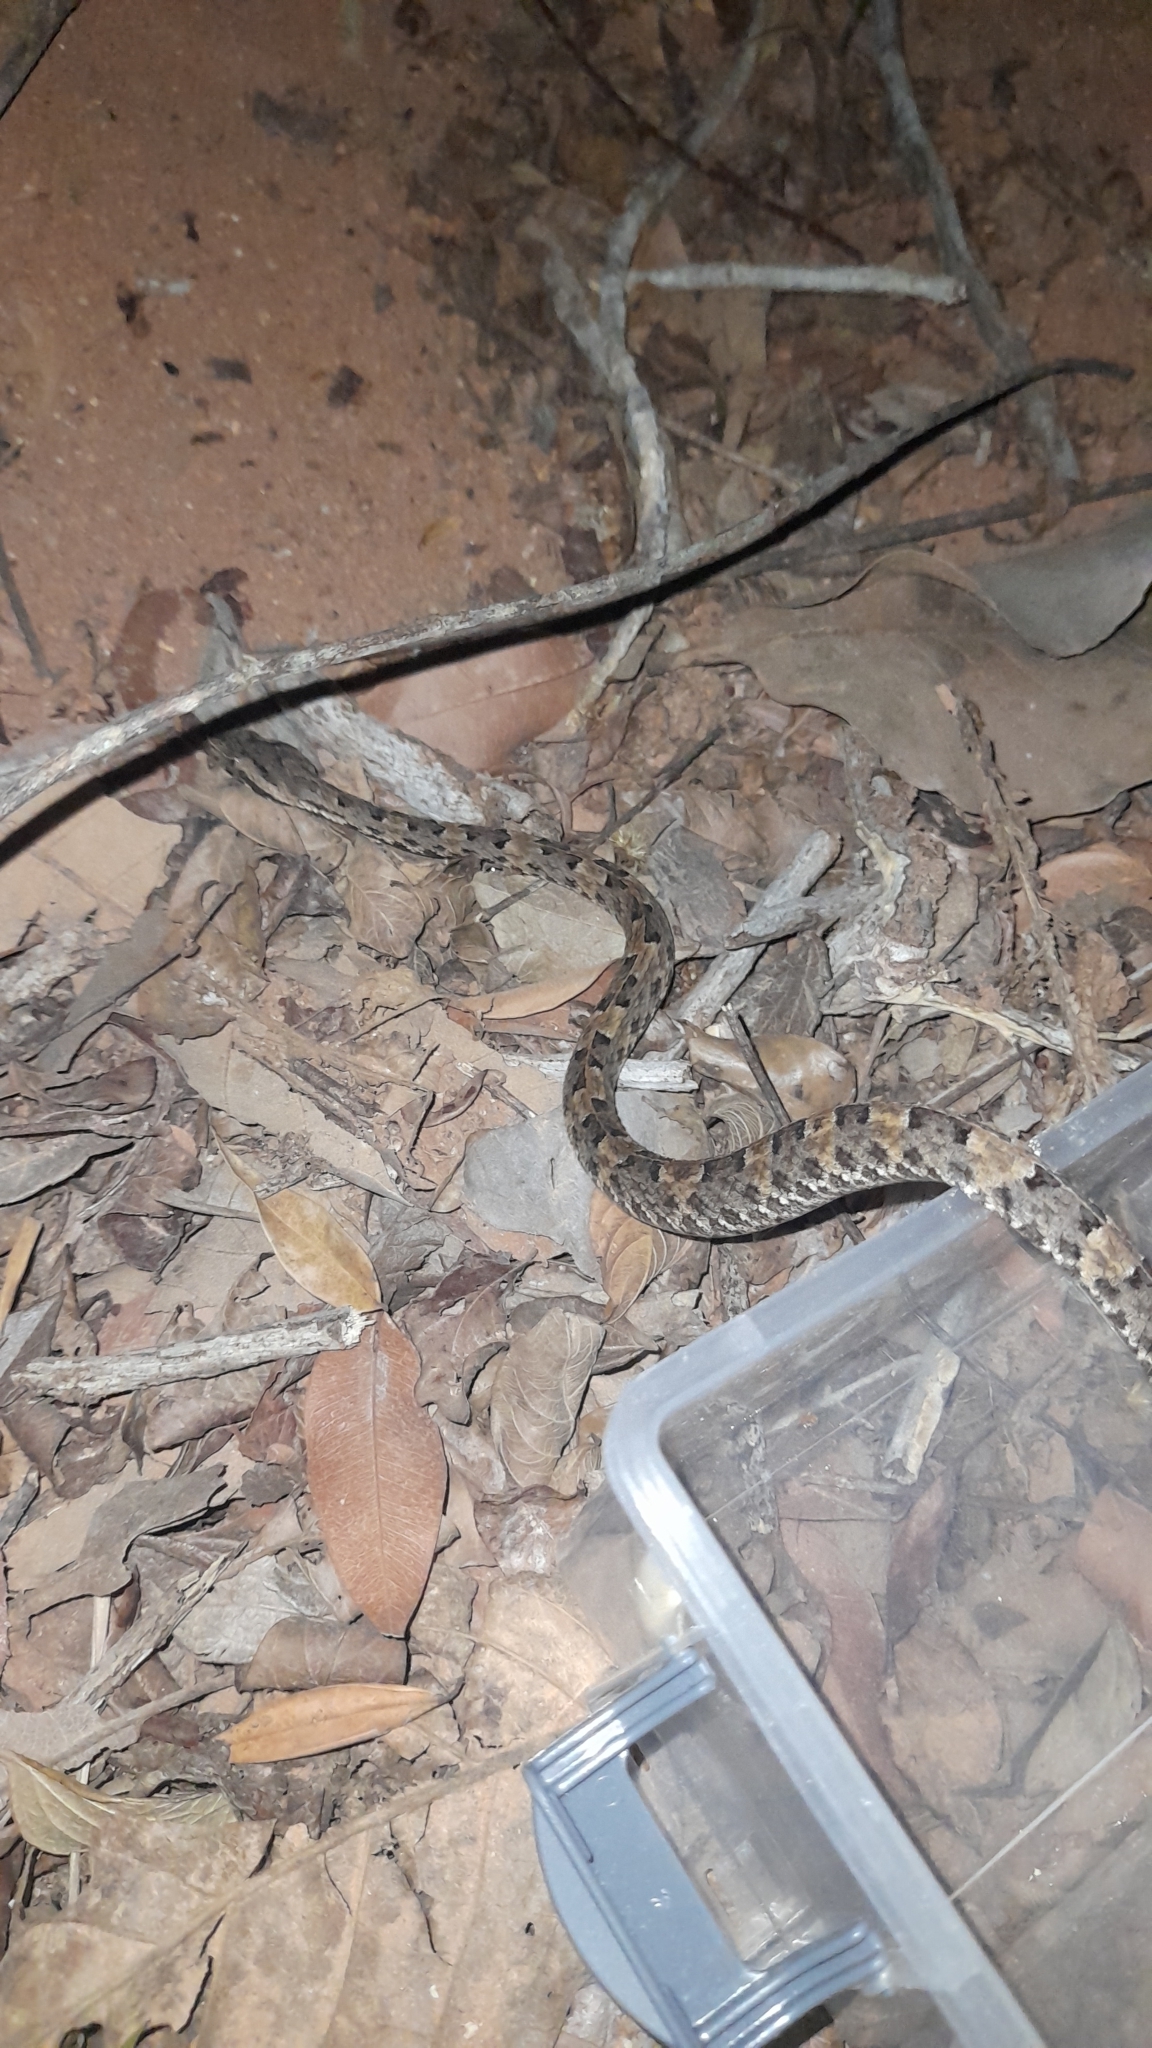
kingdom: Animalia
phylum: Chordata
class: Squamata
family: Viperidae
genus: Porthidium
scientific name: Porthidium lansbergii
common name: Lansberg's hognosed pit viper
